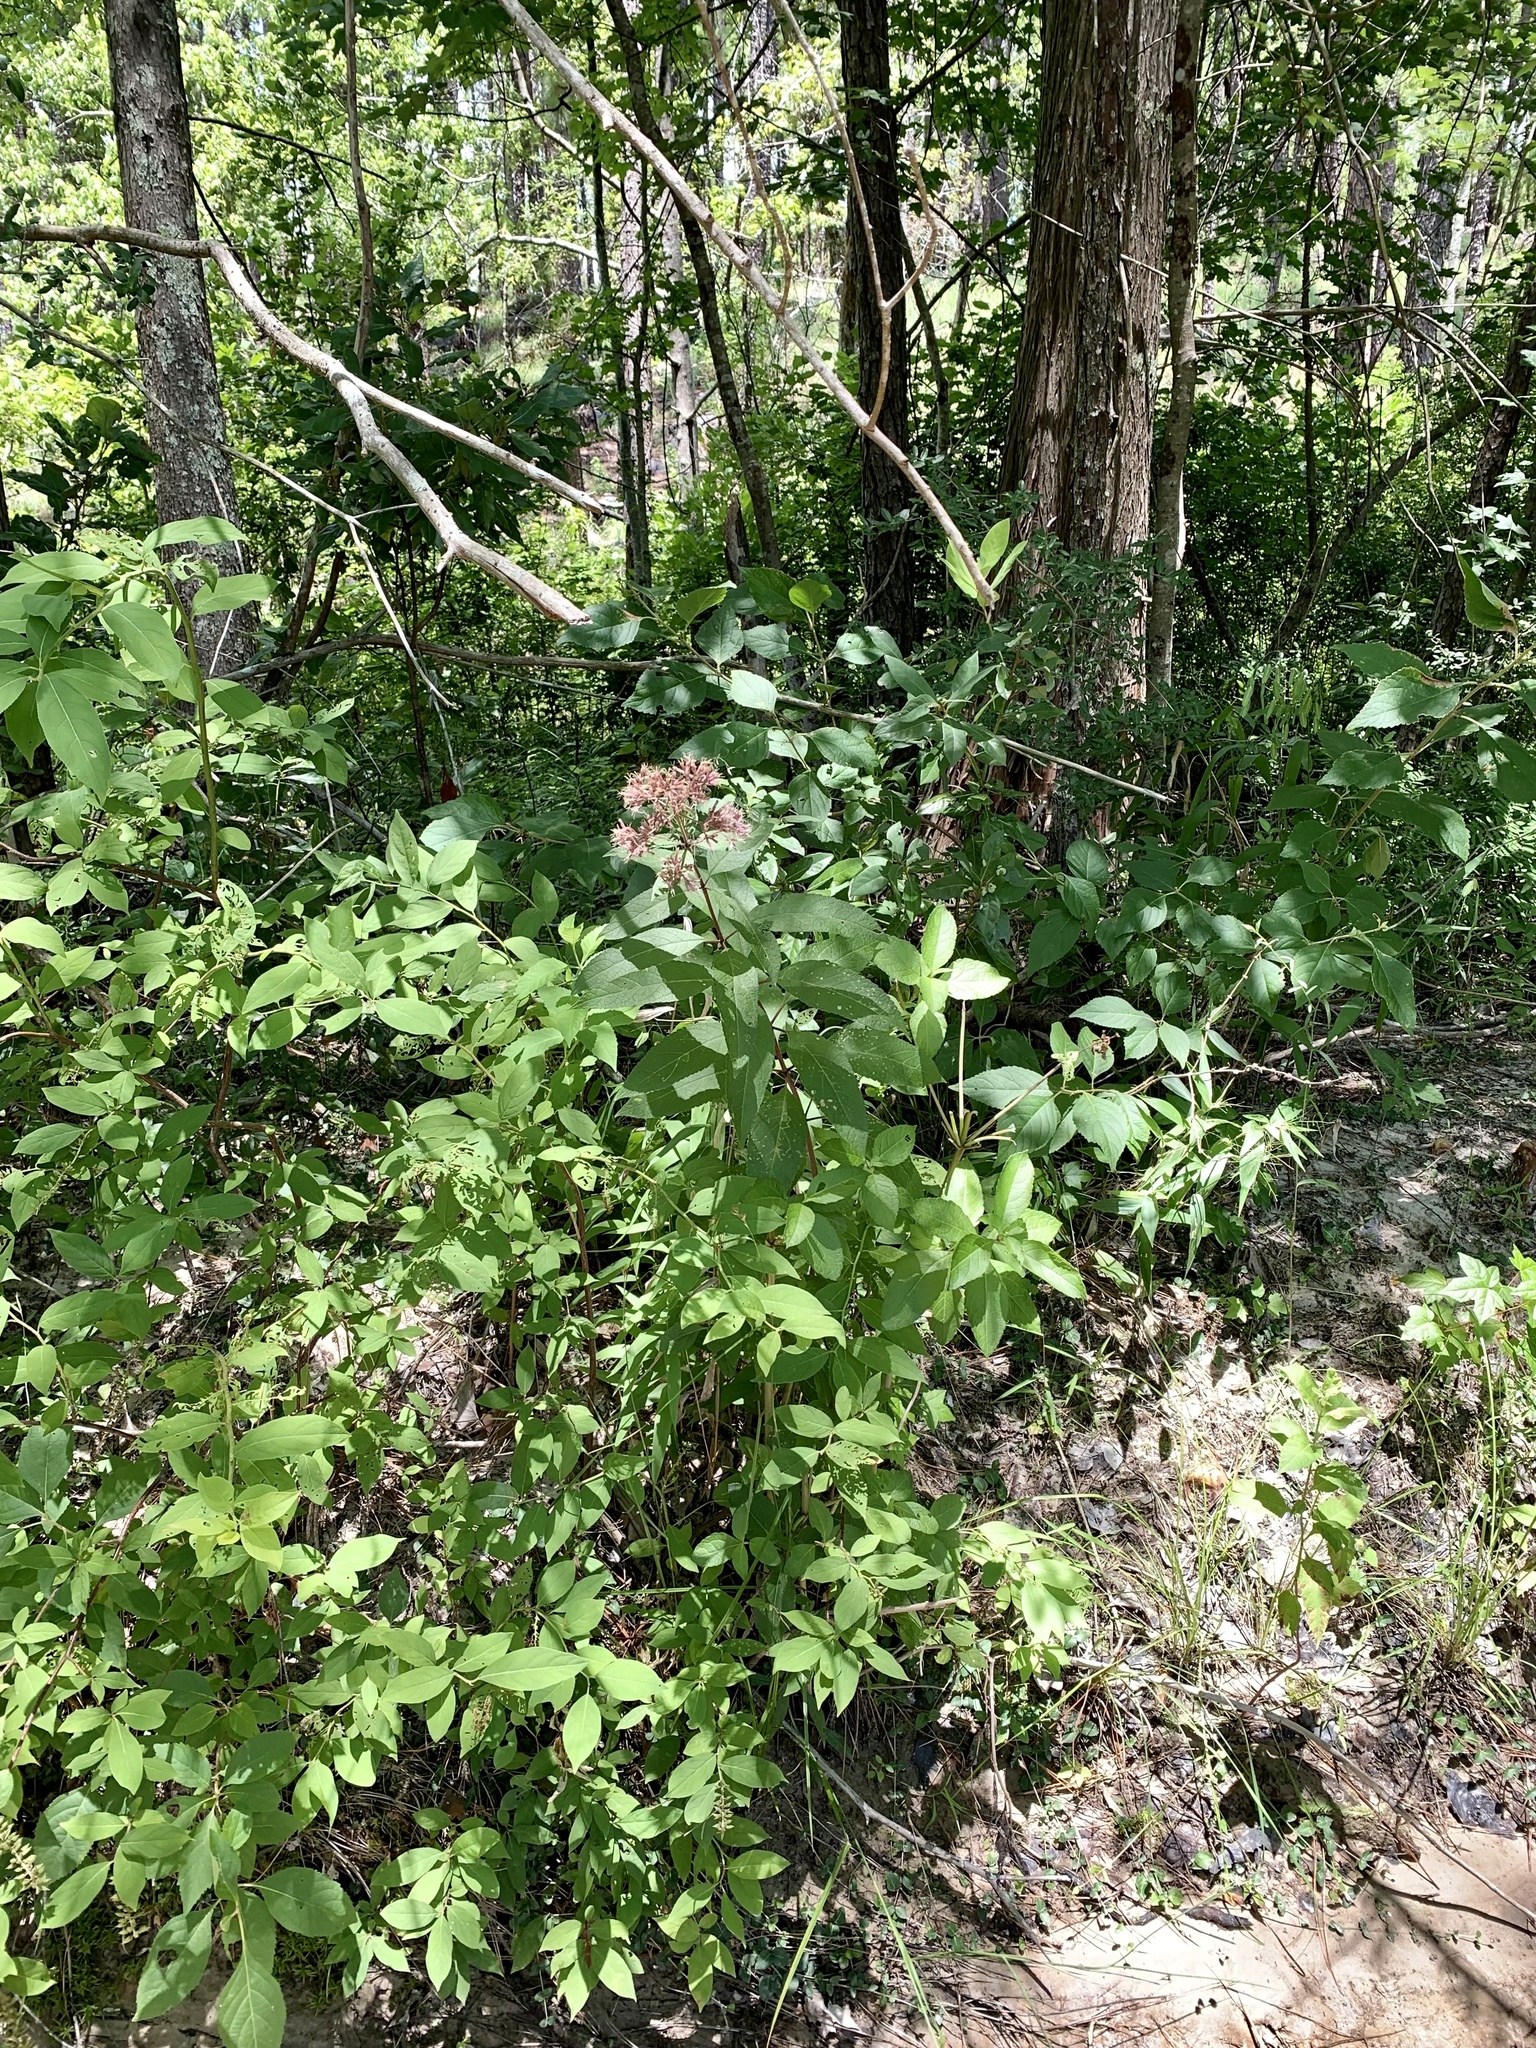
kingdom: Plantae
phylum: Tracheophyta
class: Magnoliopsida
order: Asterales
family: Asteraceae
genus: Eutrochium
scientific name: Eutrochium fistulosum
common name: Trumpetweed
